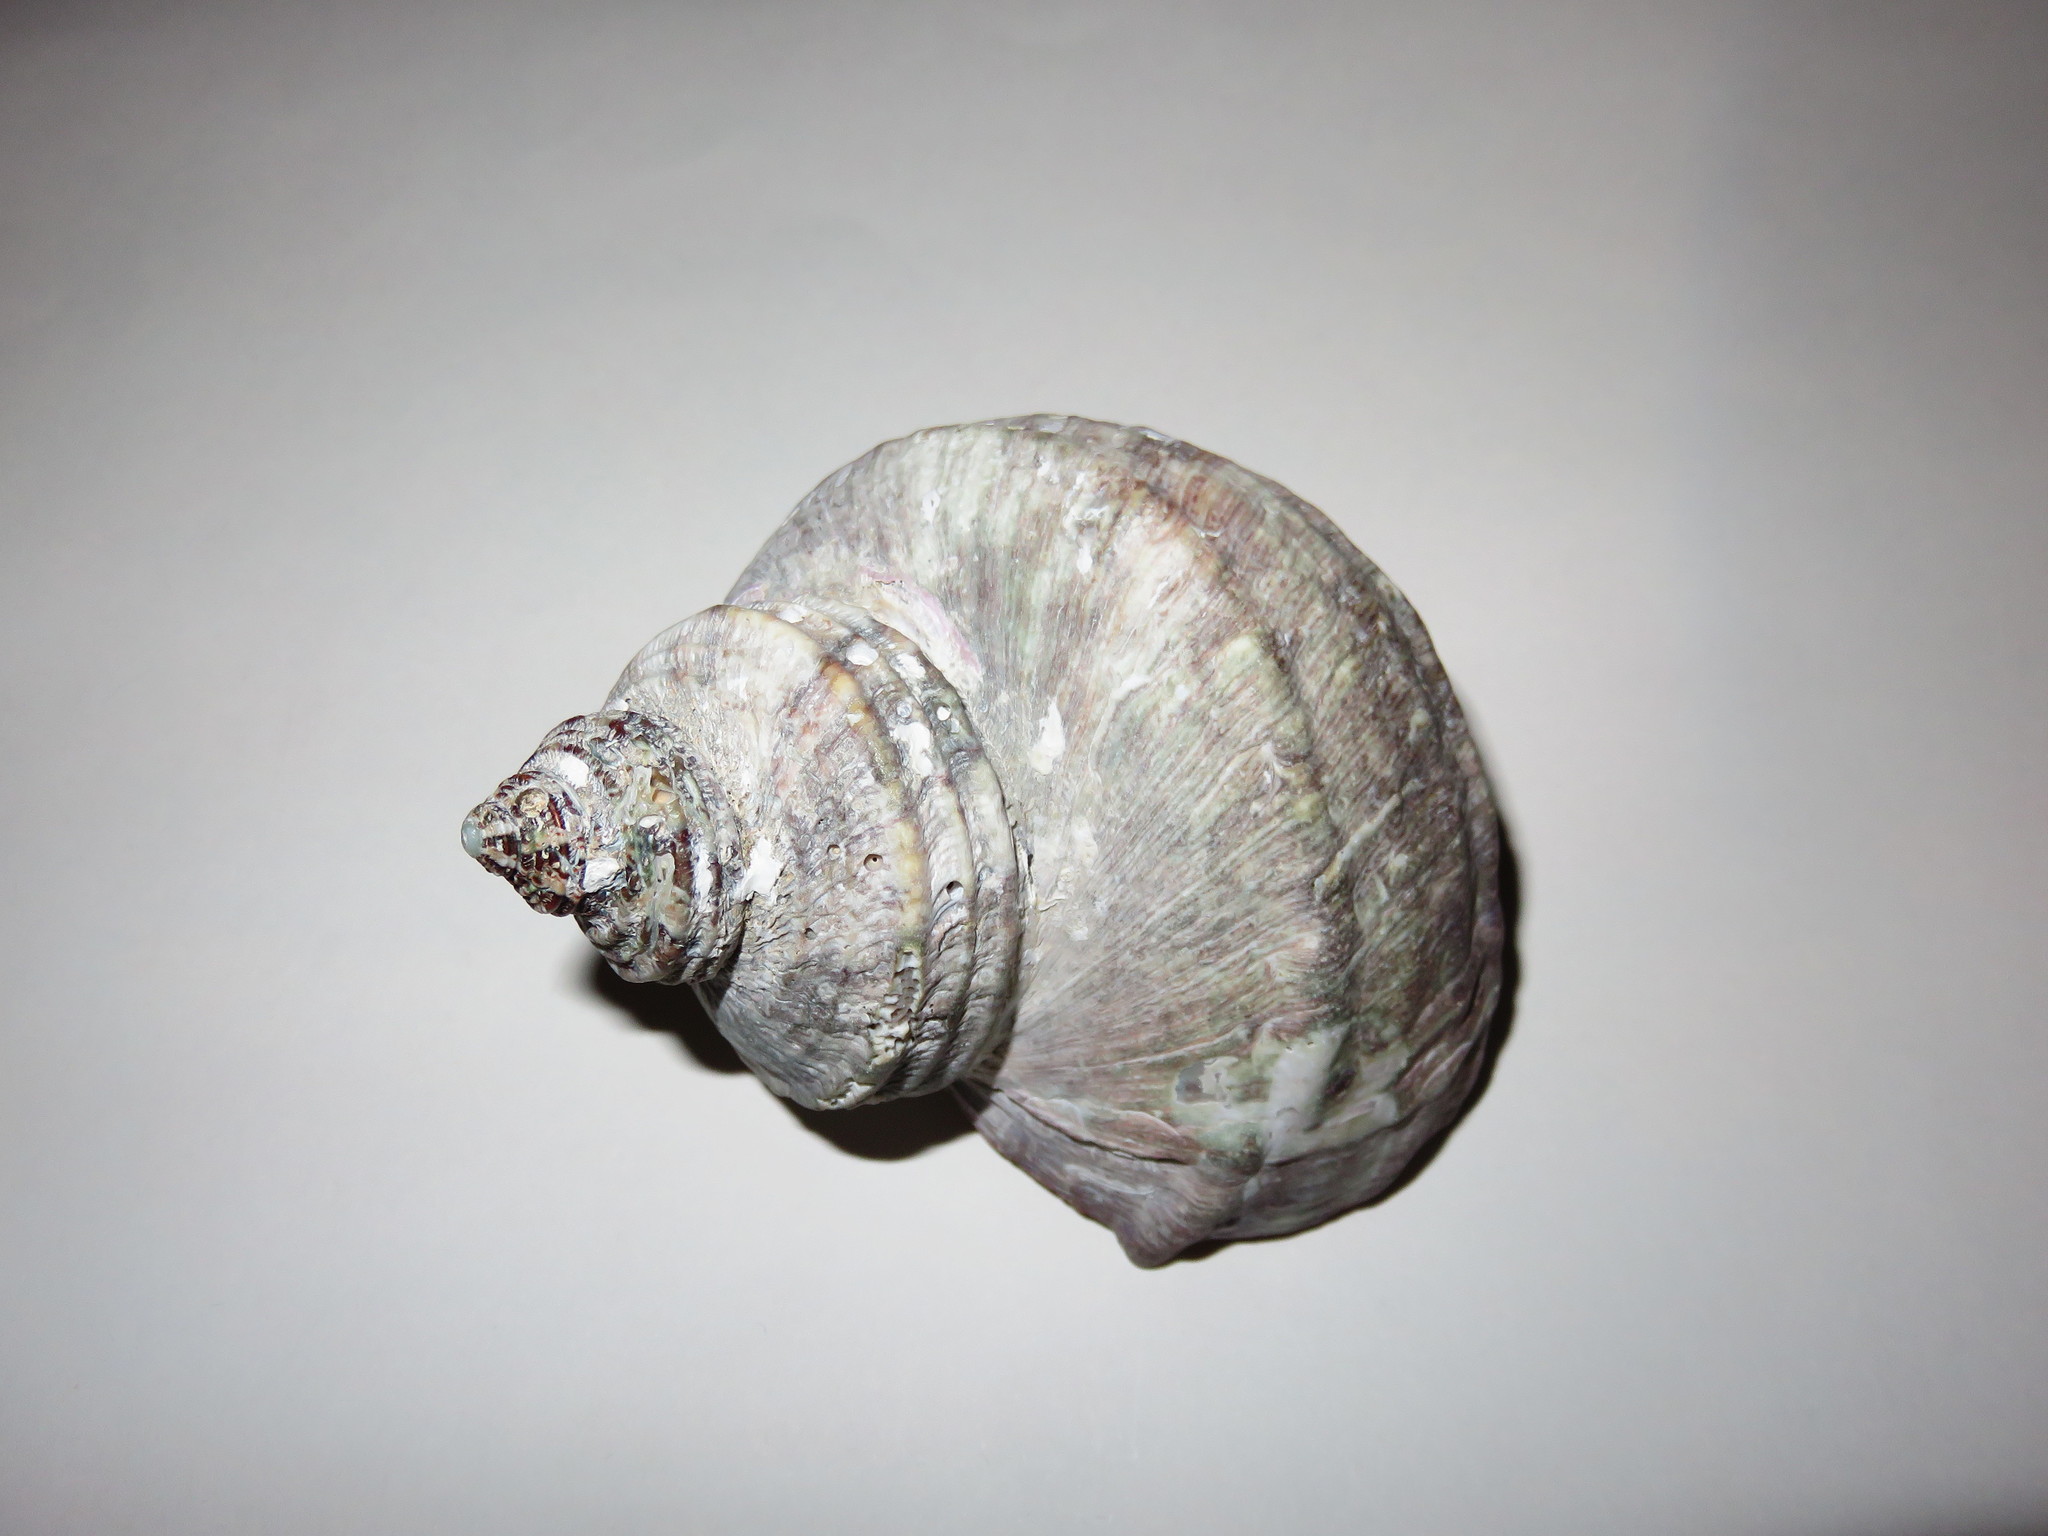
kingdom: Animalia
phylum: Mollusca
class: Gastropoda
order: Trochida
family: Turbinidae
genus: Turbo
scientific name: Turbo sazae
